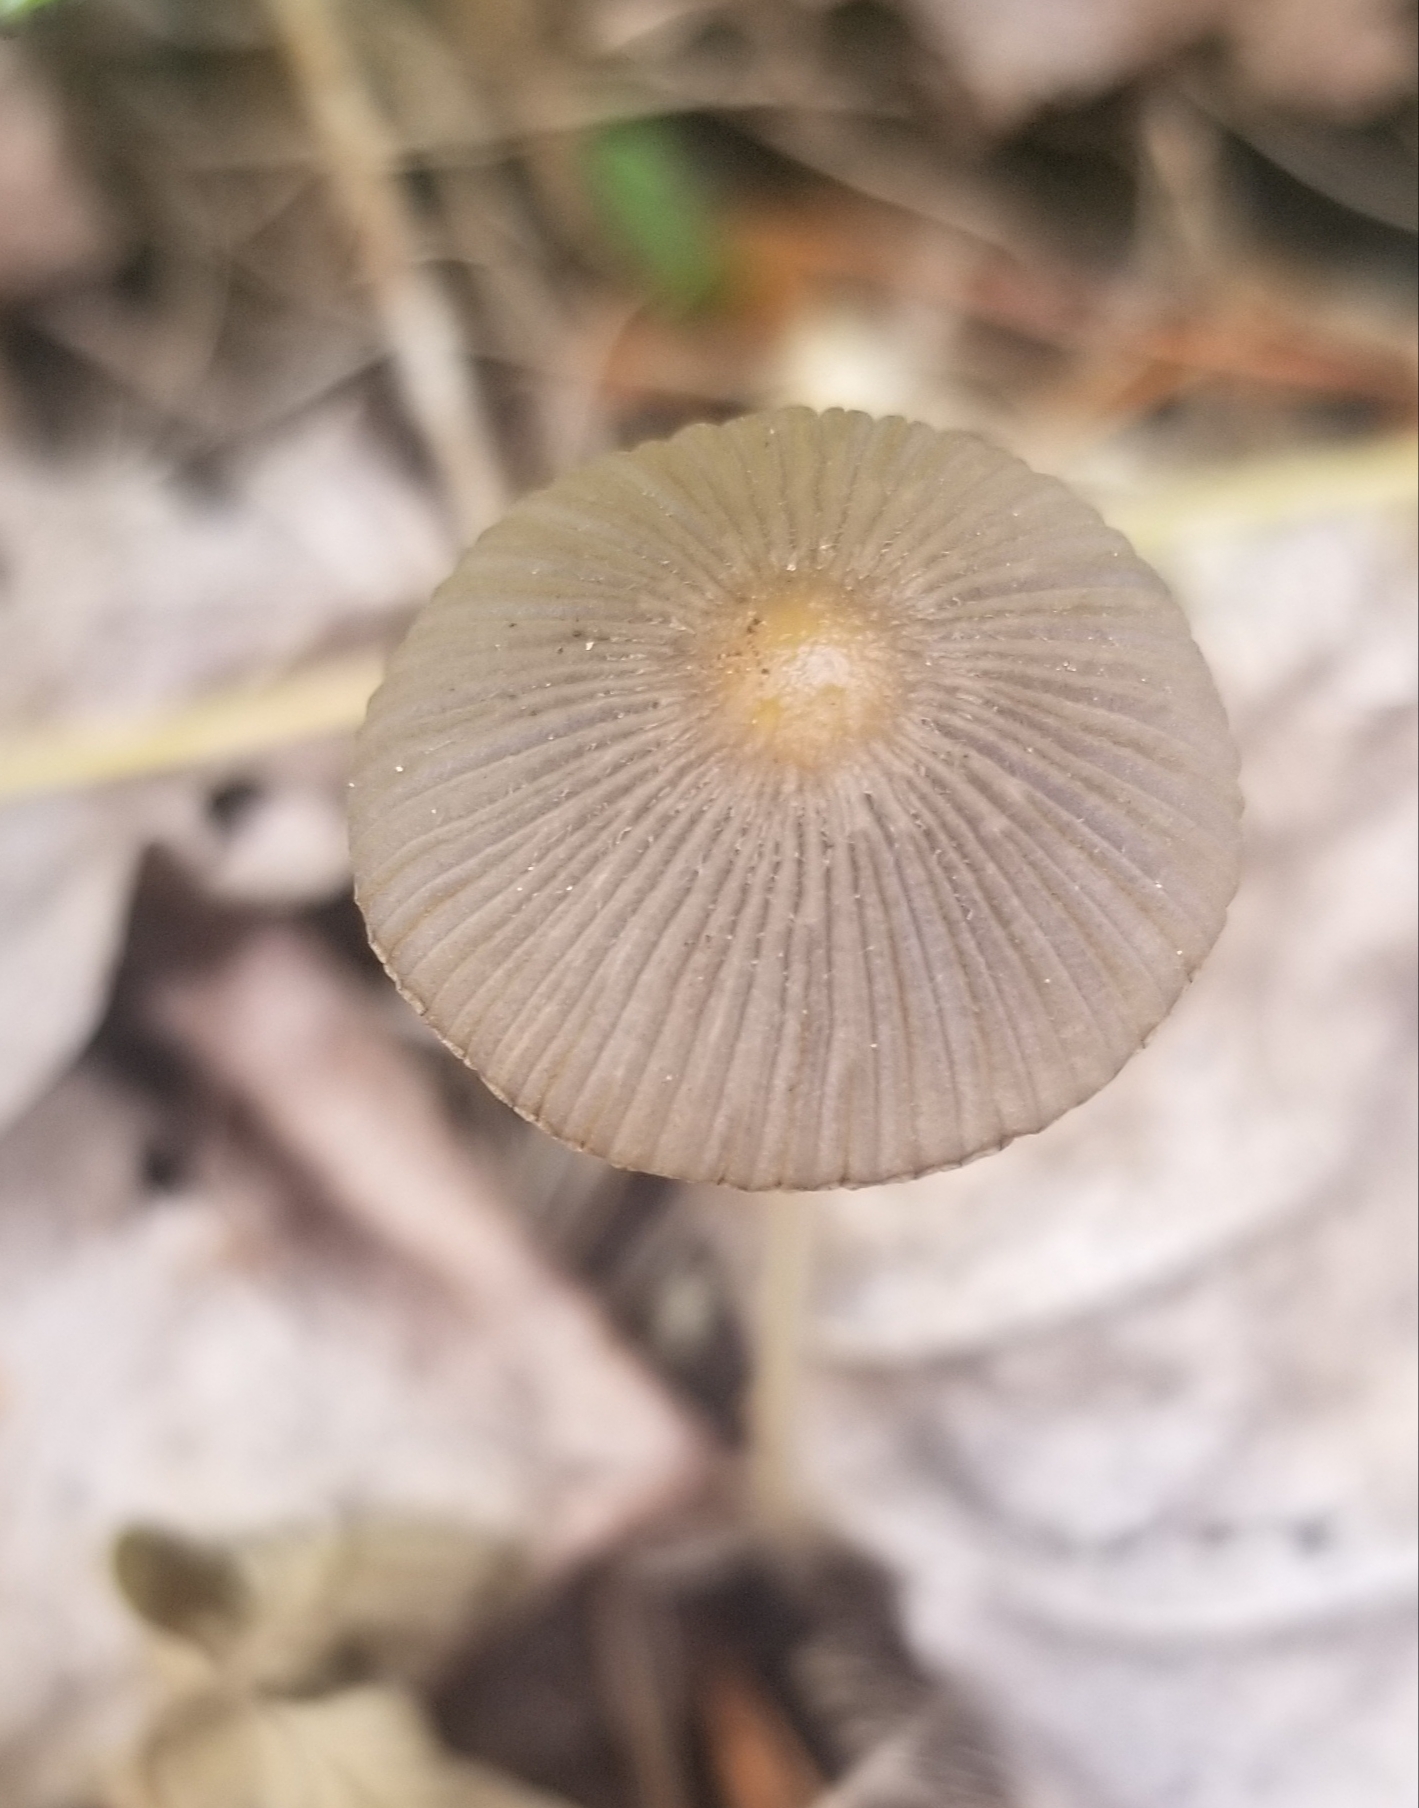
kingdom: Fungi
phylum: Basidiomycota
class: Agaricomycetes
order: Agaricales
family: Psathyrellaceae
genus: Parasola
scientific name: Parasola plicatilis
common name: Pleated inkcap
